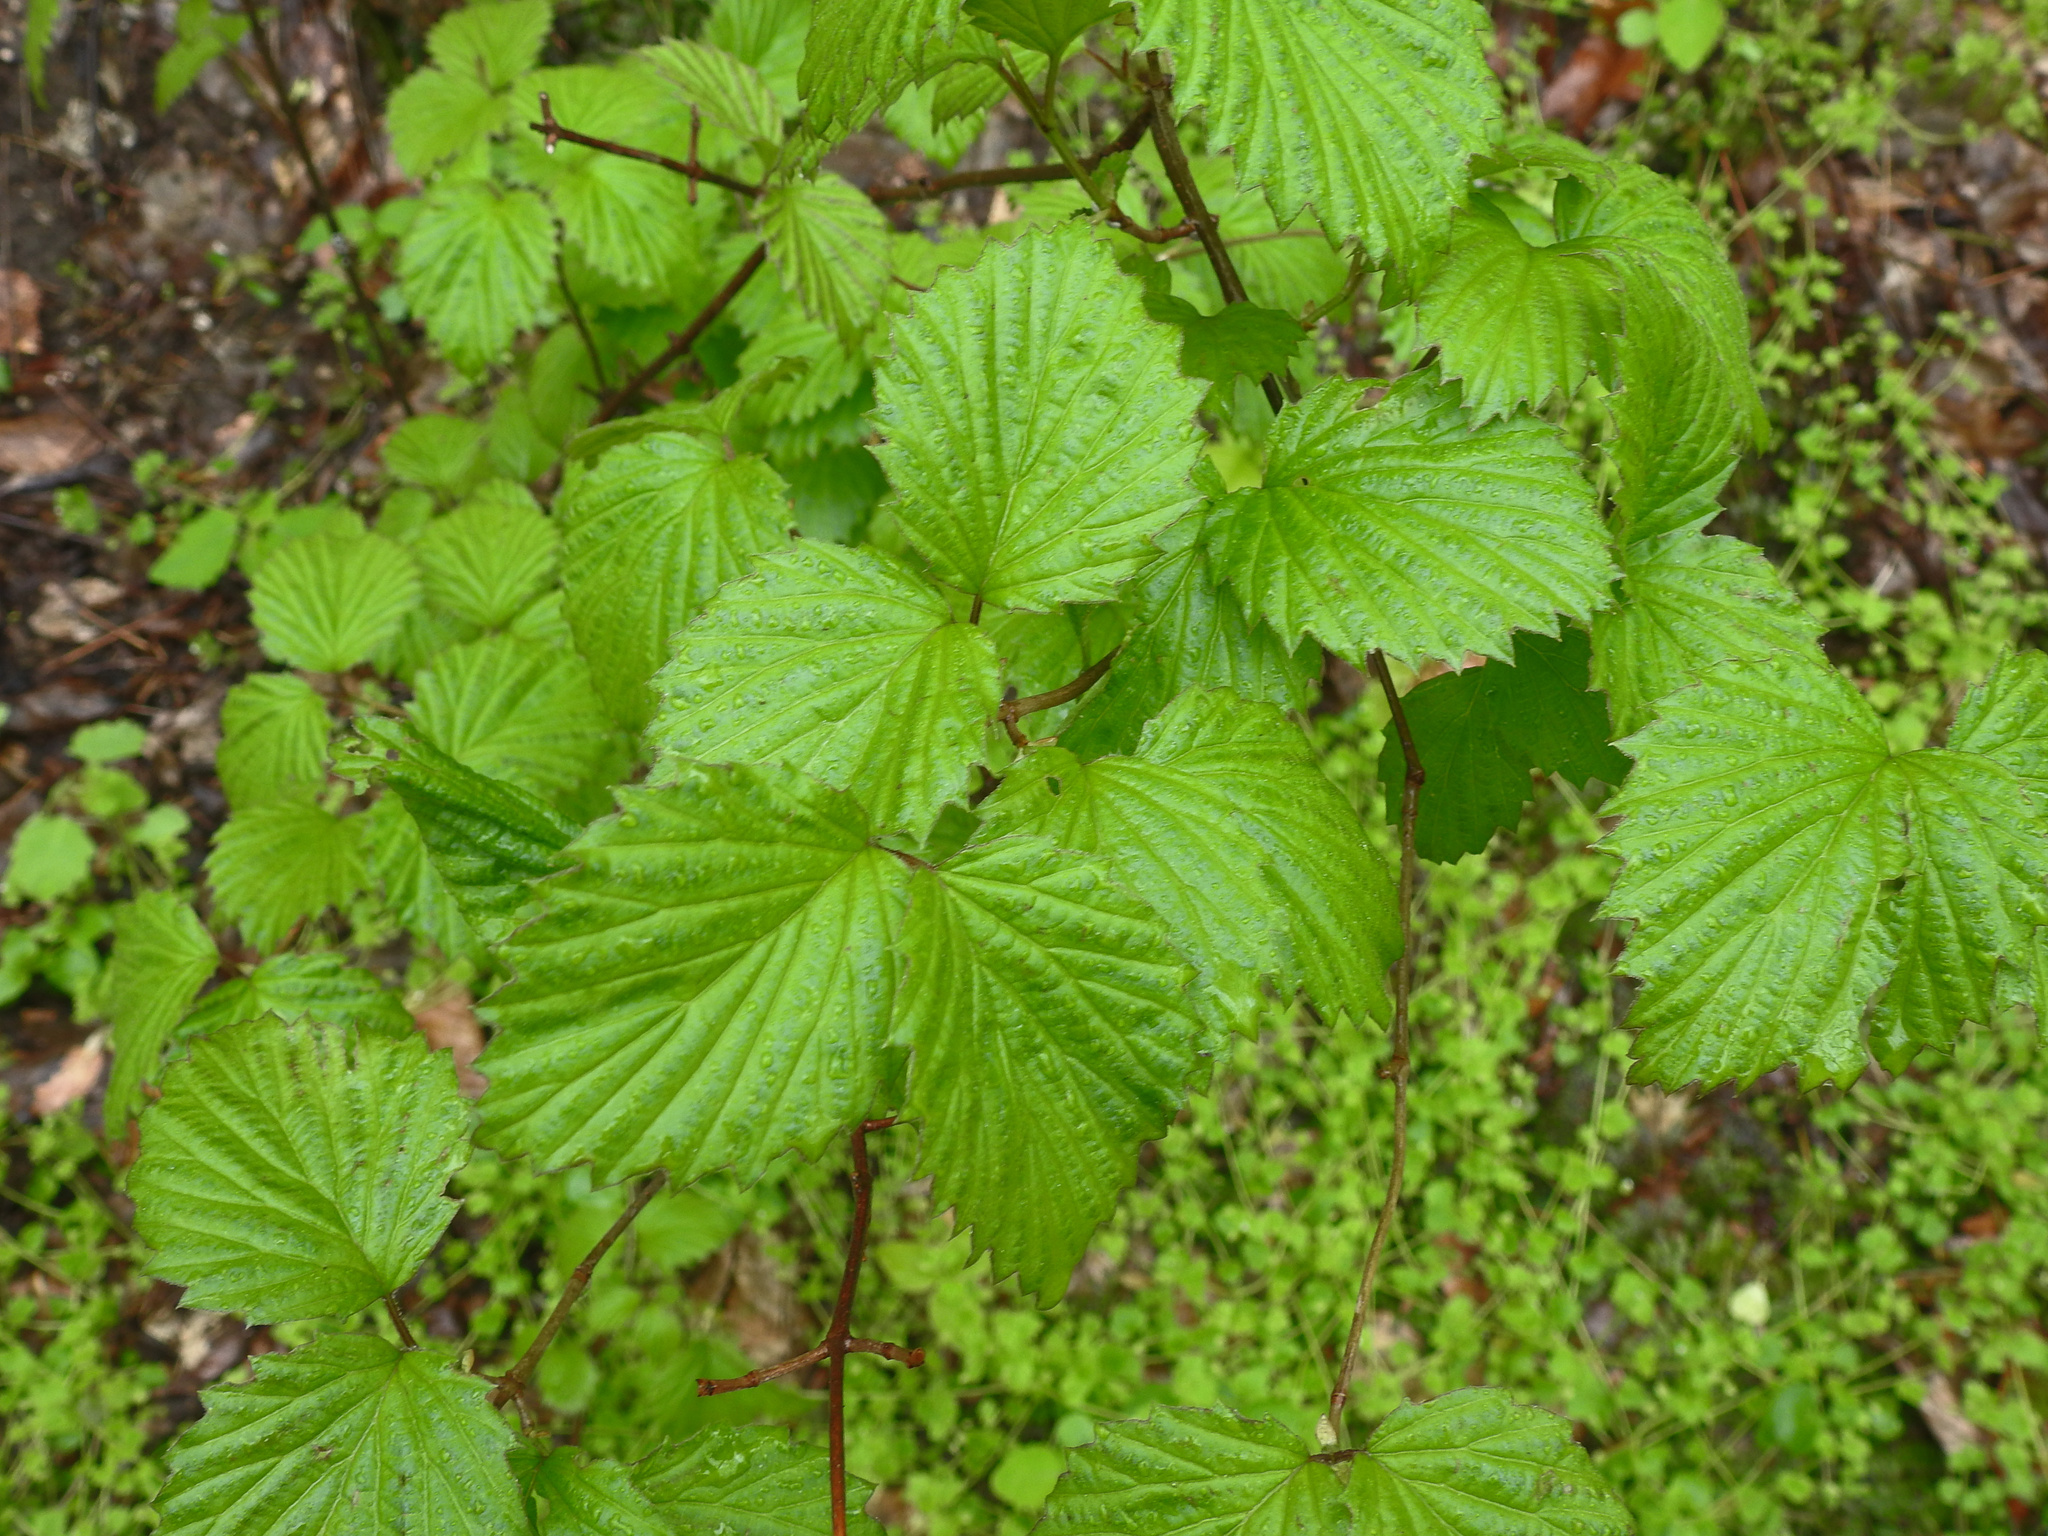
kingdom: Plantae
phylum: Tracheophyta
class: Magnoliopsida
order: Dipsacales
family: Viburnaceae
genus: Viburnum
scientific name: Viburnum dentatum
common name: Arrow-wood
